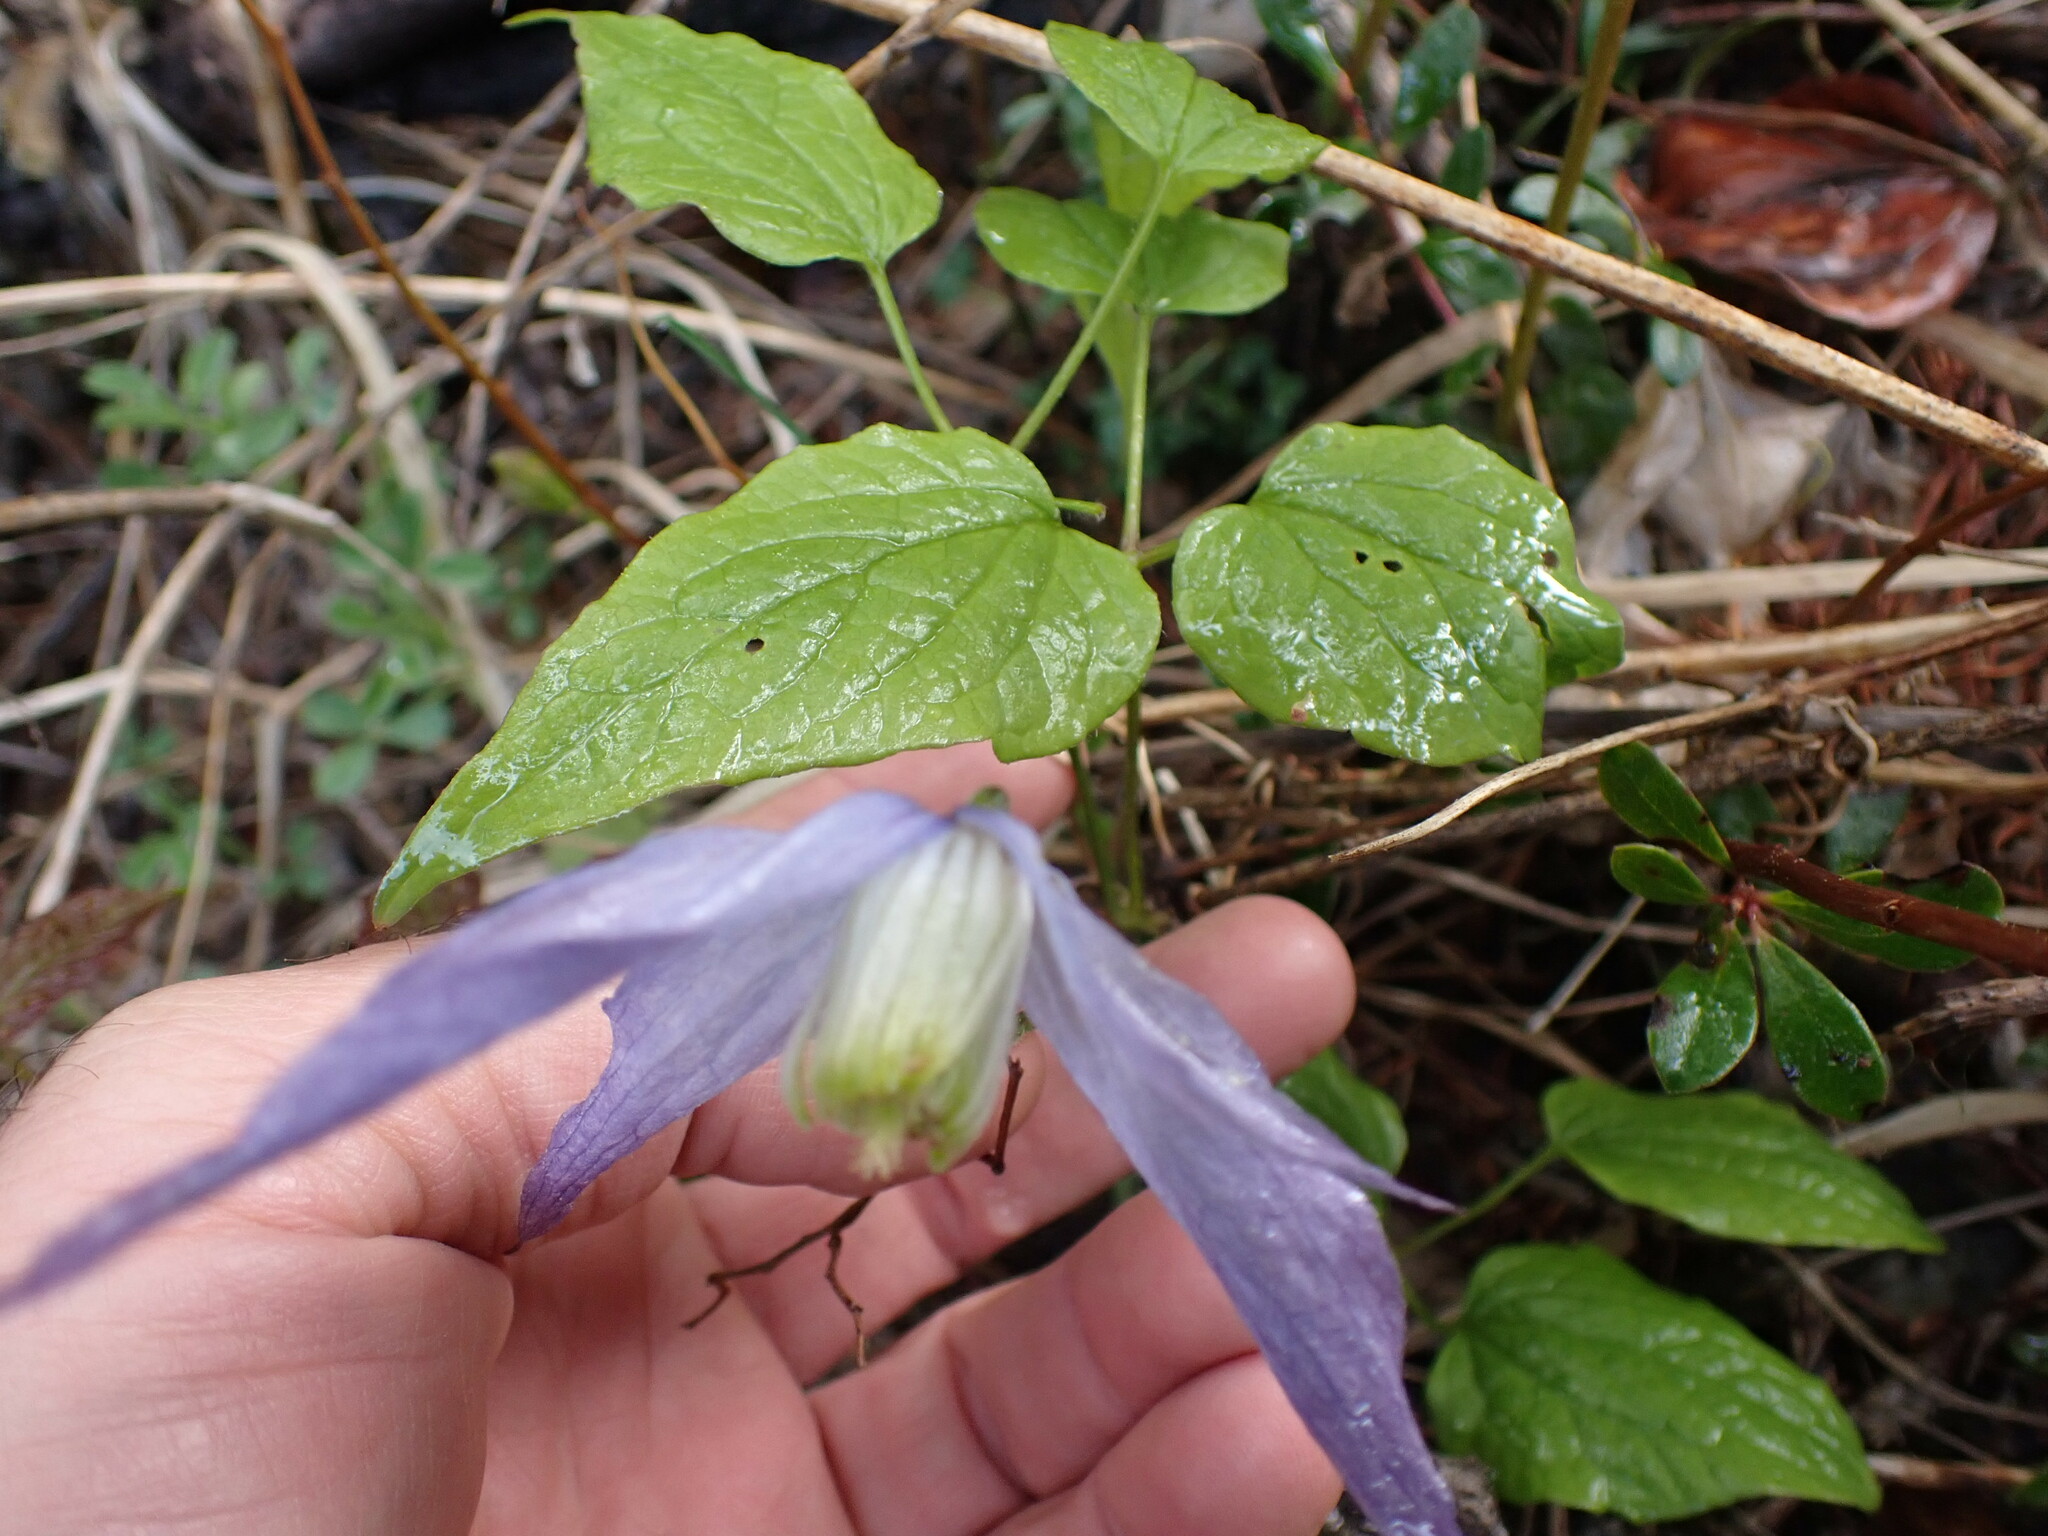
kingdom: Plantae
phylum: Tracheophyta
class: Magnoliopsida
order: Ranunculales
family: Ranunculaceae
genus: Clematis
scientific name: Clematis occidentalis
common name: Purple clematis
